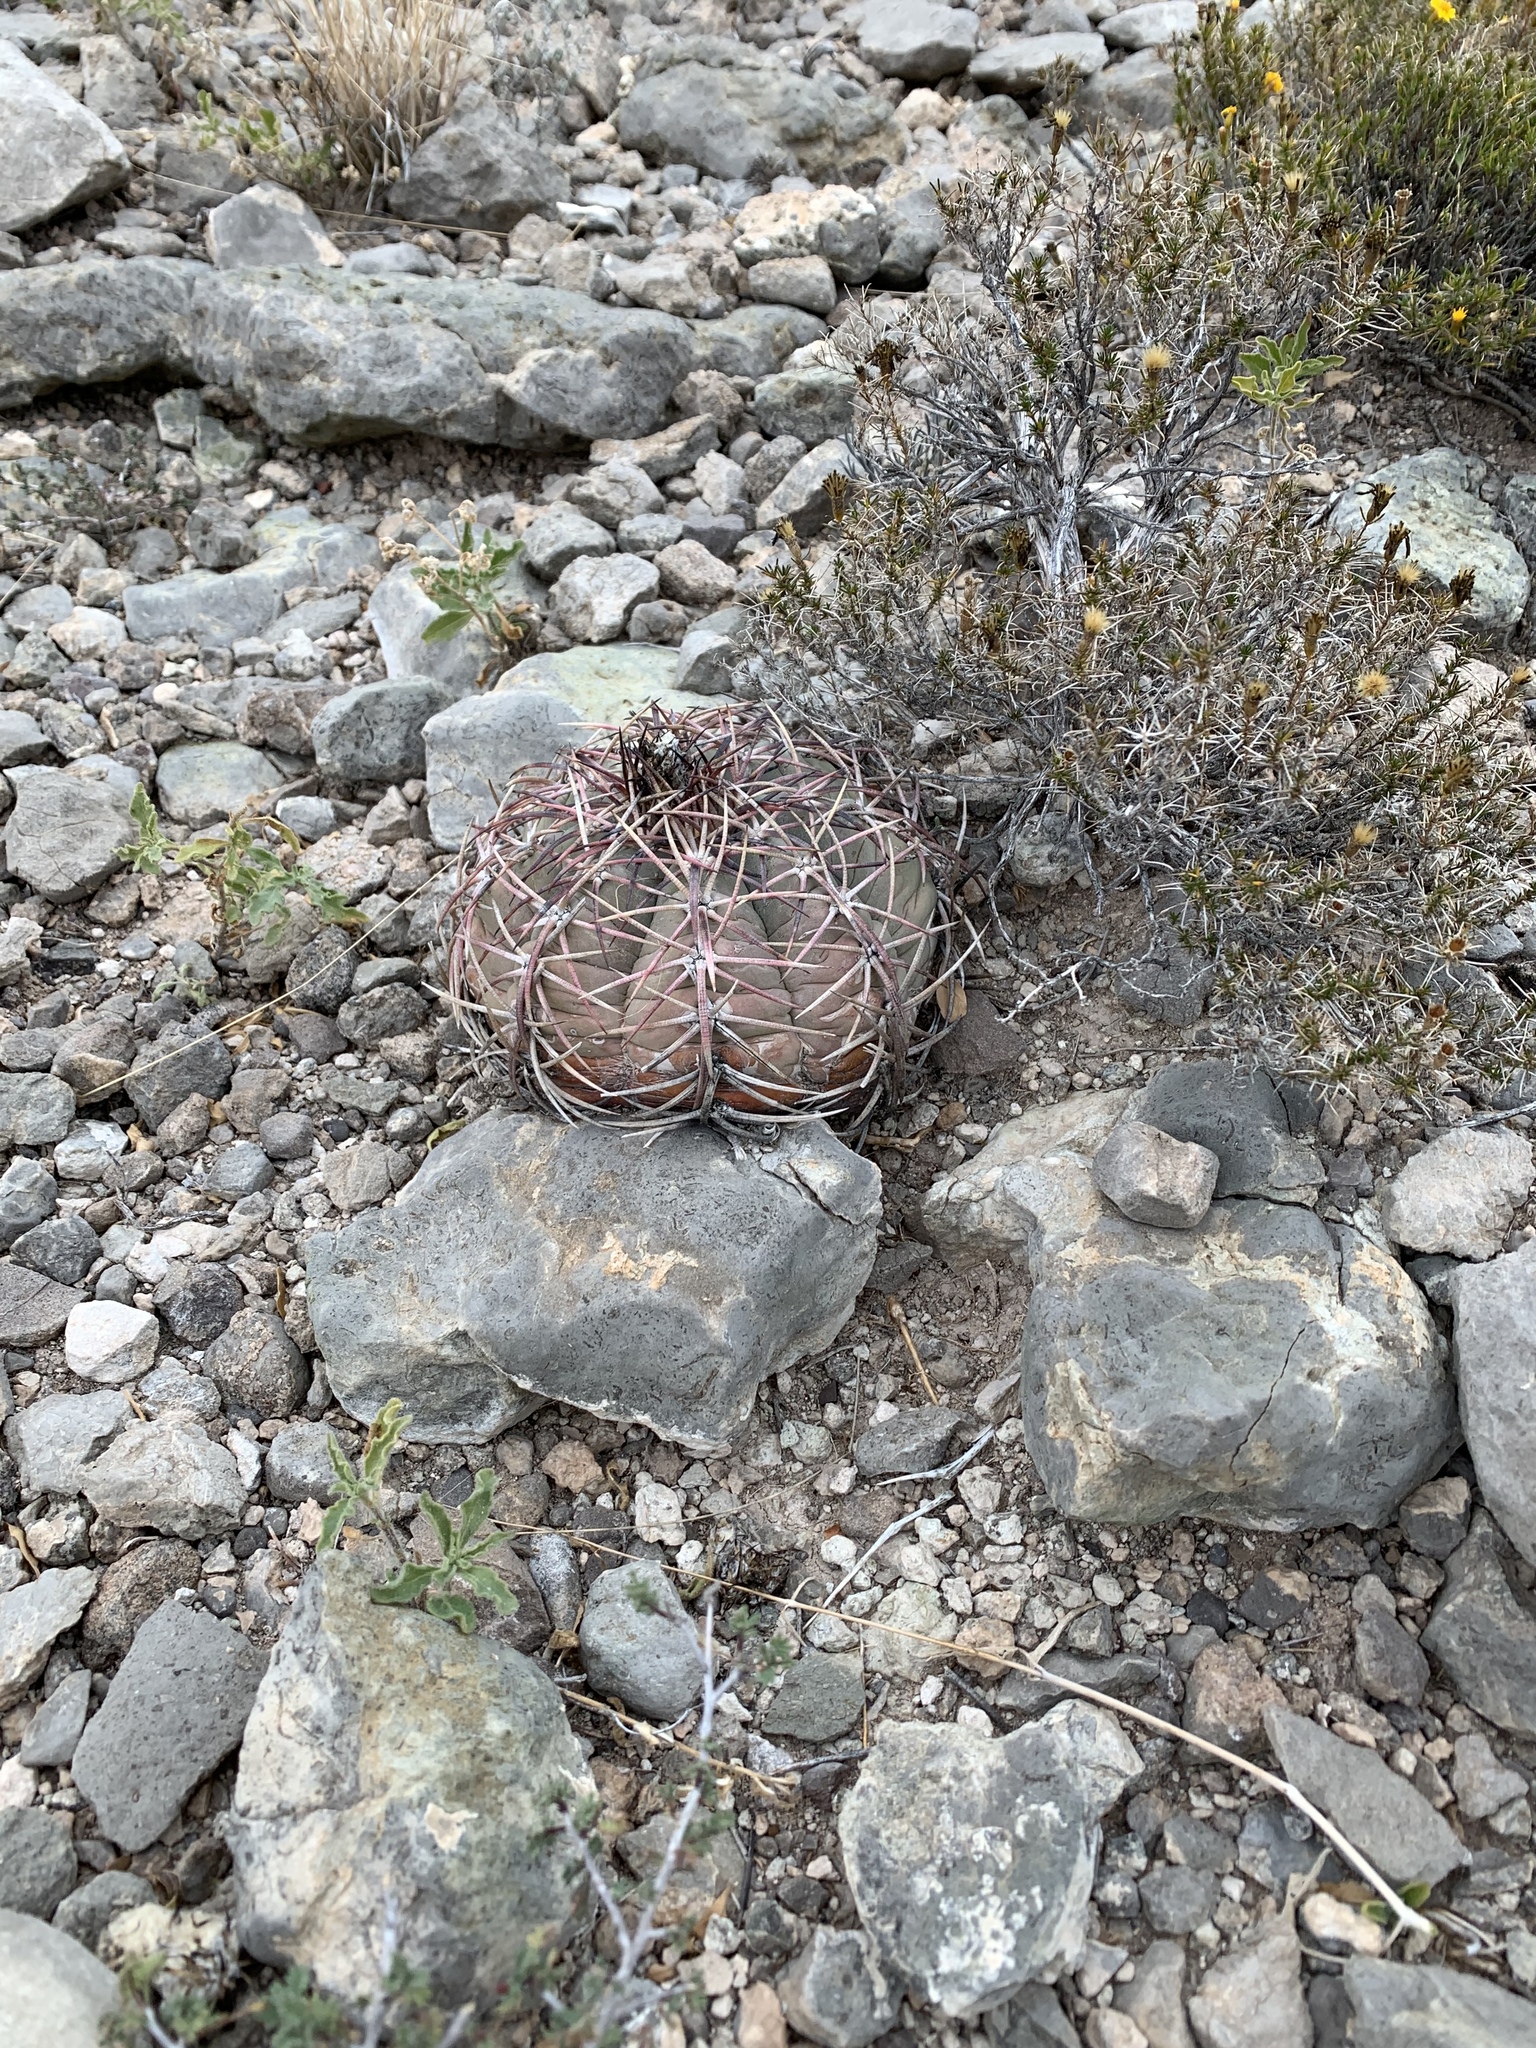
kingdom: Plantae
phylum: Tracheophyta
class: Magnoliopsida
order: Caryophyllales
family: Cactaceae
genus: Echinocactus
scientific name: Echinocactus horizonthalonius
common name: Devilshead
